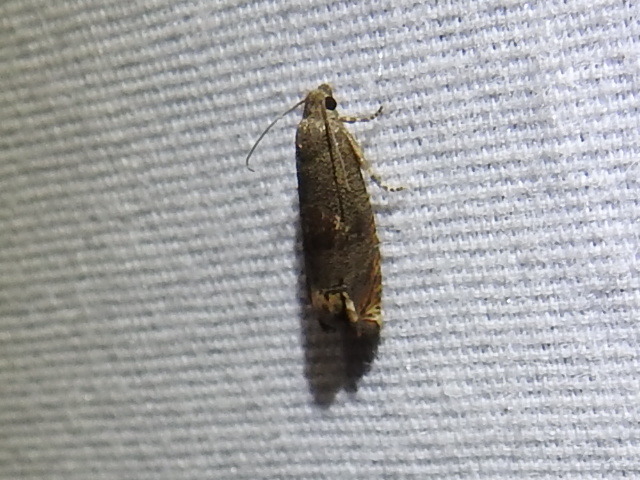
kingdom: Animalia
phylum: Arthropoda
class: Insecta
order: Lepidoptera
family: Tortricidae
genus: Epiblema
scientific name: Epiblema strenuana
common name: Ragweed borer moth
